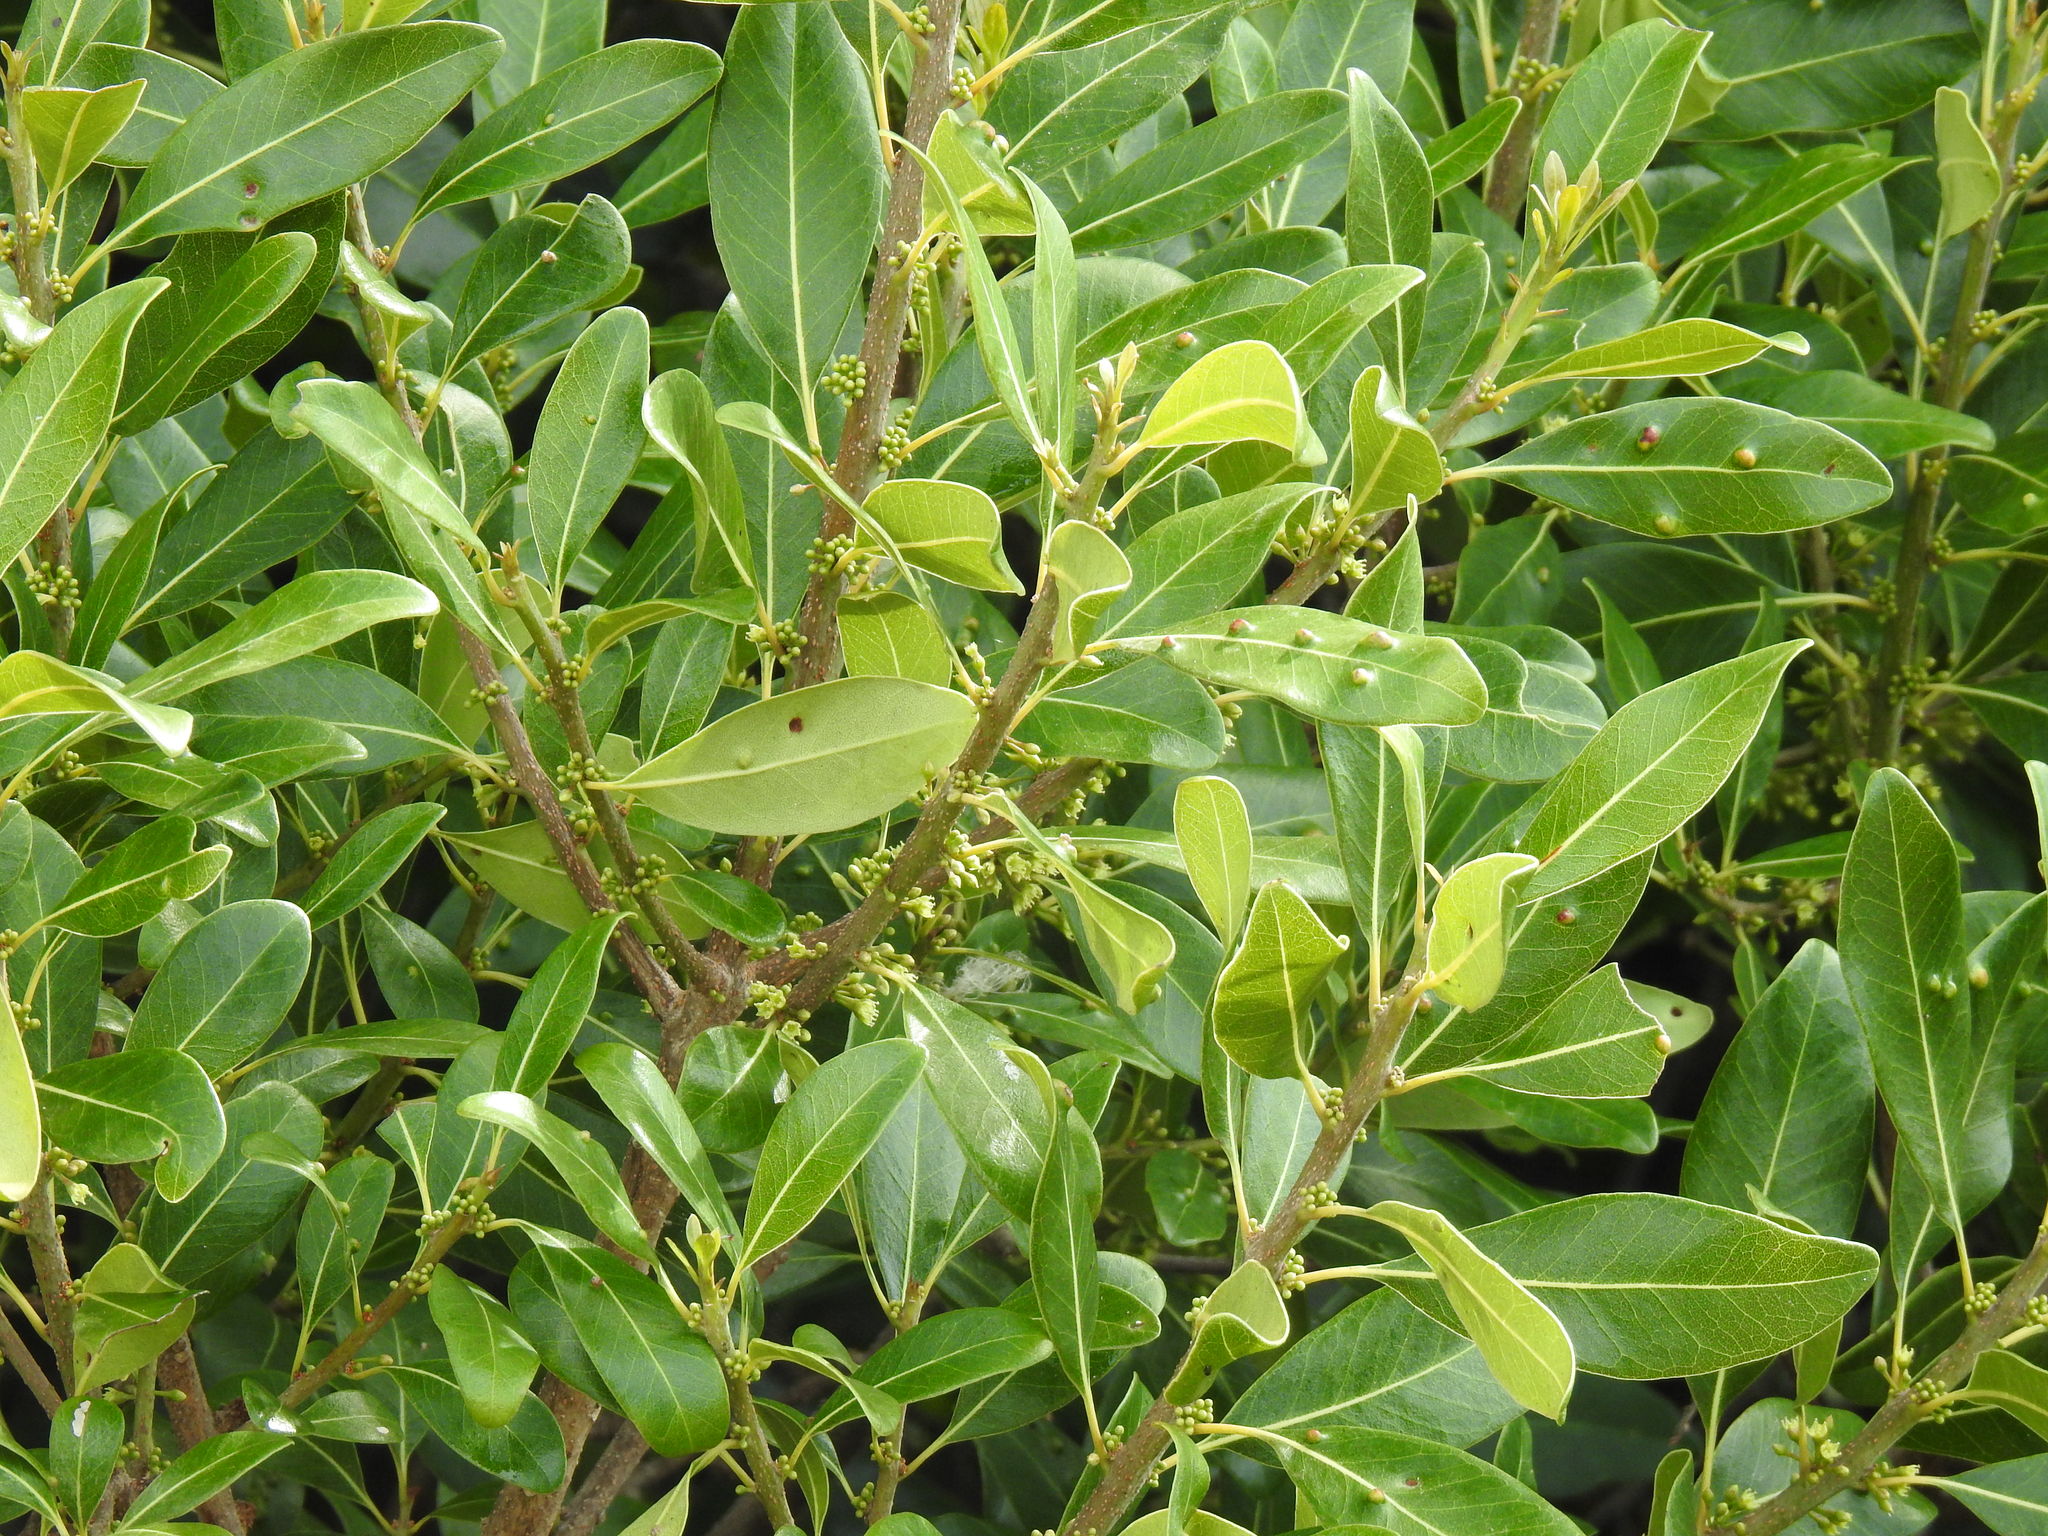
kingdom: Plantae
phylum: Tracheophyta
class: Magnoliopsida
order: Ericales
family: Sapotaceae
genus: Sideroxylon
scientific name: Sideroxylon inerme
